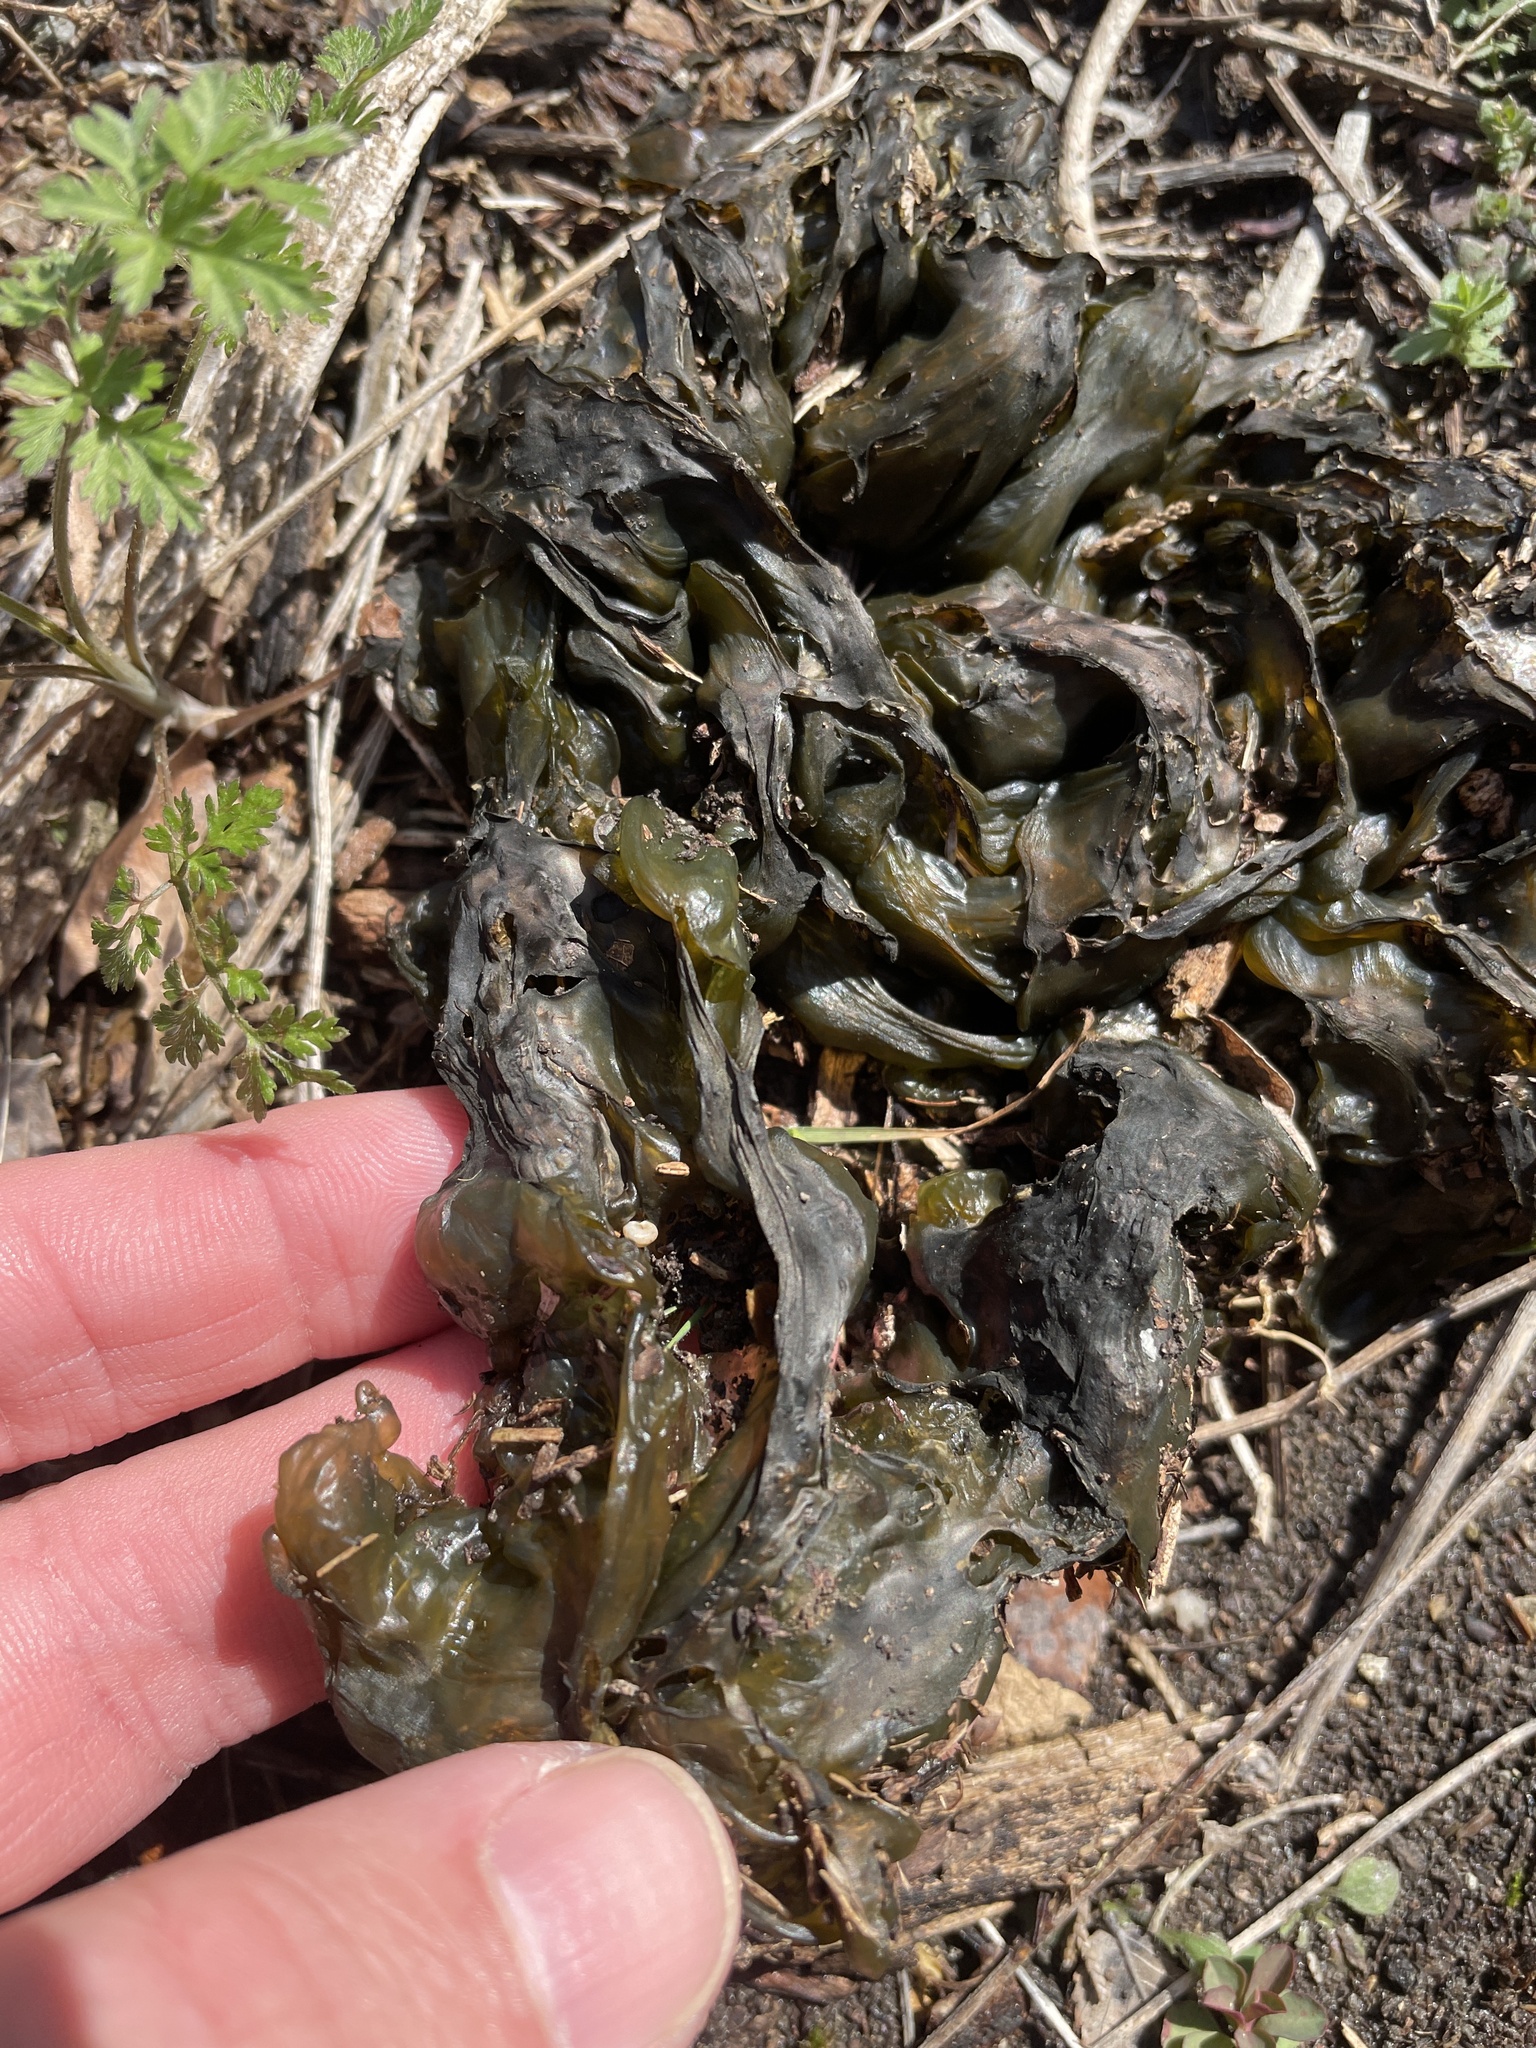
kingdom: Bacteria
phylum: Cyanobacteria
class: Cyanobacteriia
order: Cyanobacteriales
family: Nostocaceae
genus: Nostoc
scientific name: Nostoc commune
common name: Star jelly
